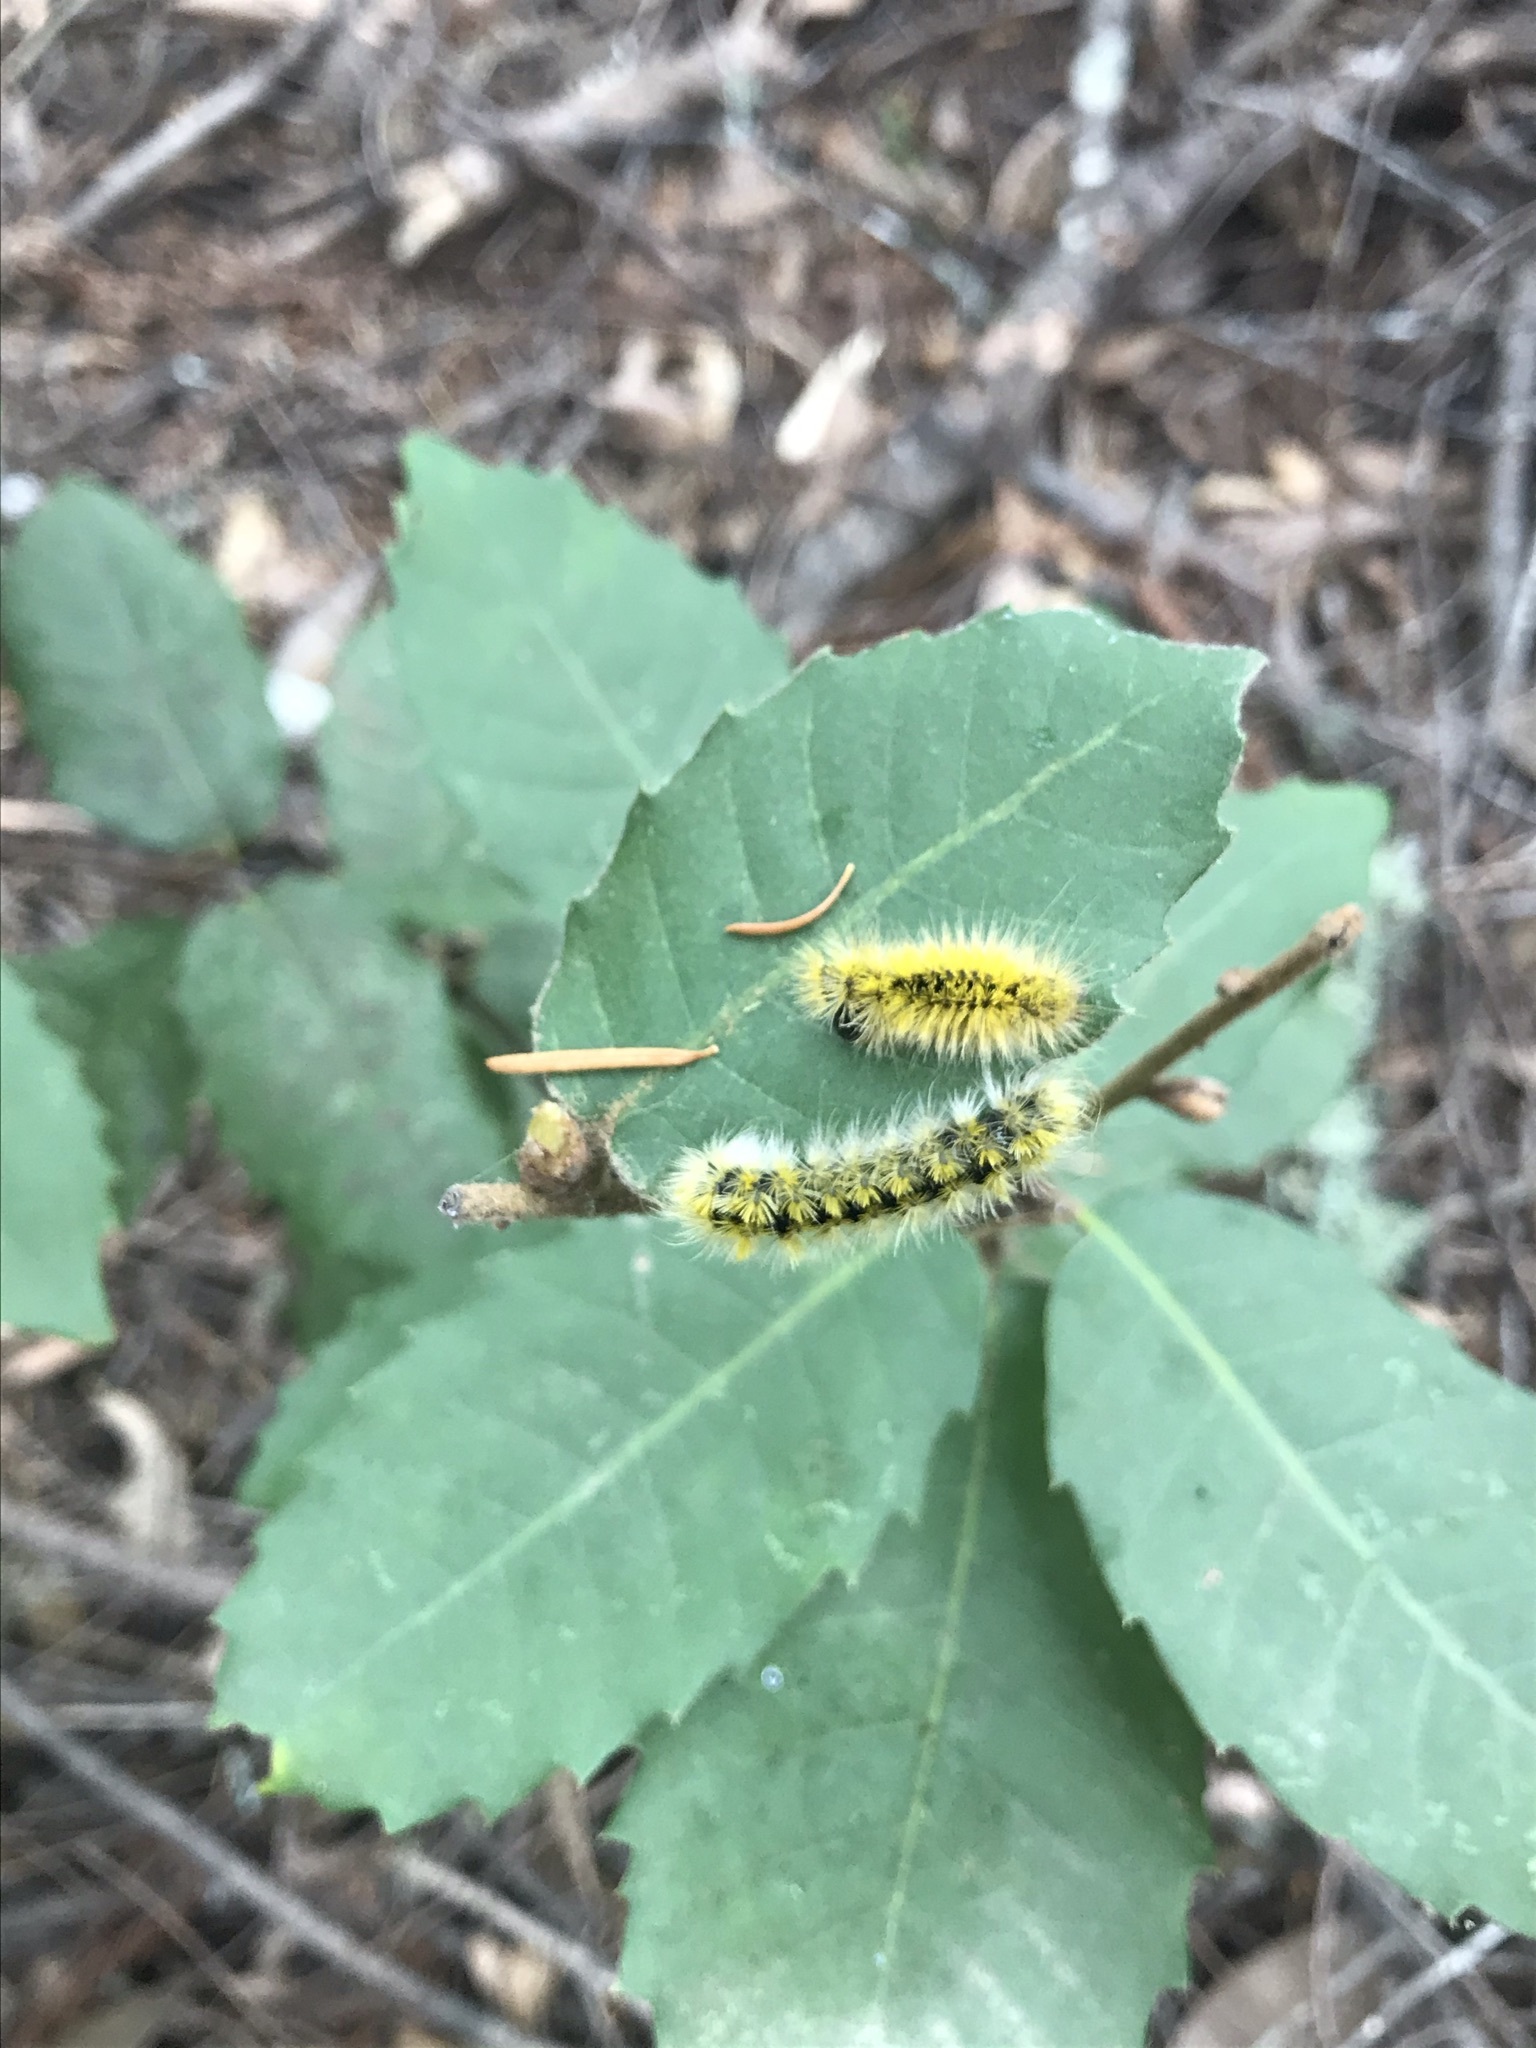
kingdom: Animalia
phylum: Arthropoda
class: Insecta
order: Lepidoptera
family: Erebidae
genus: Lophocampa
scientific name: Lophocampa argentata
